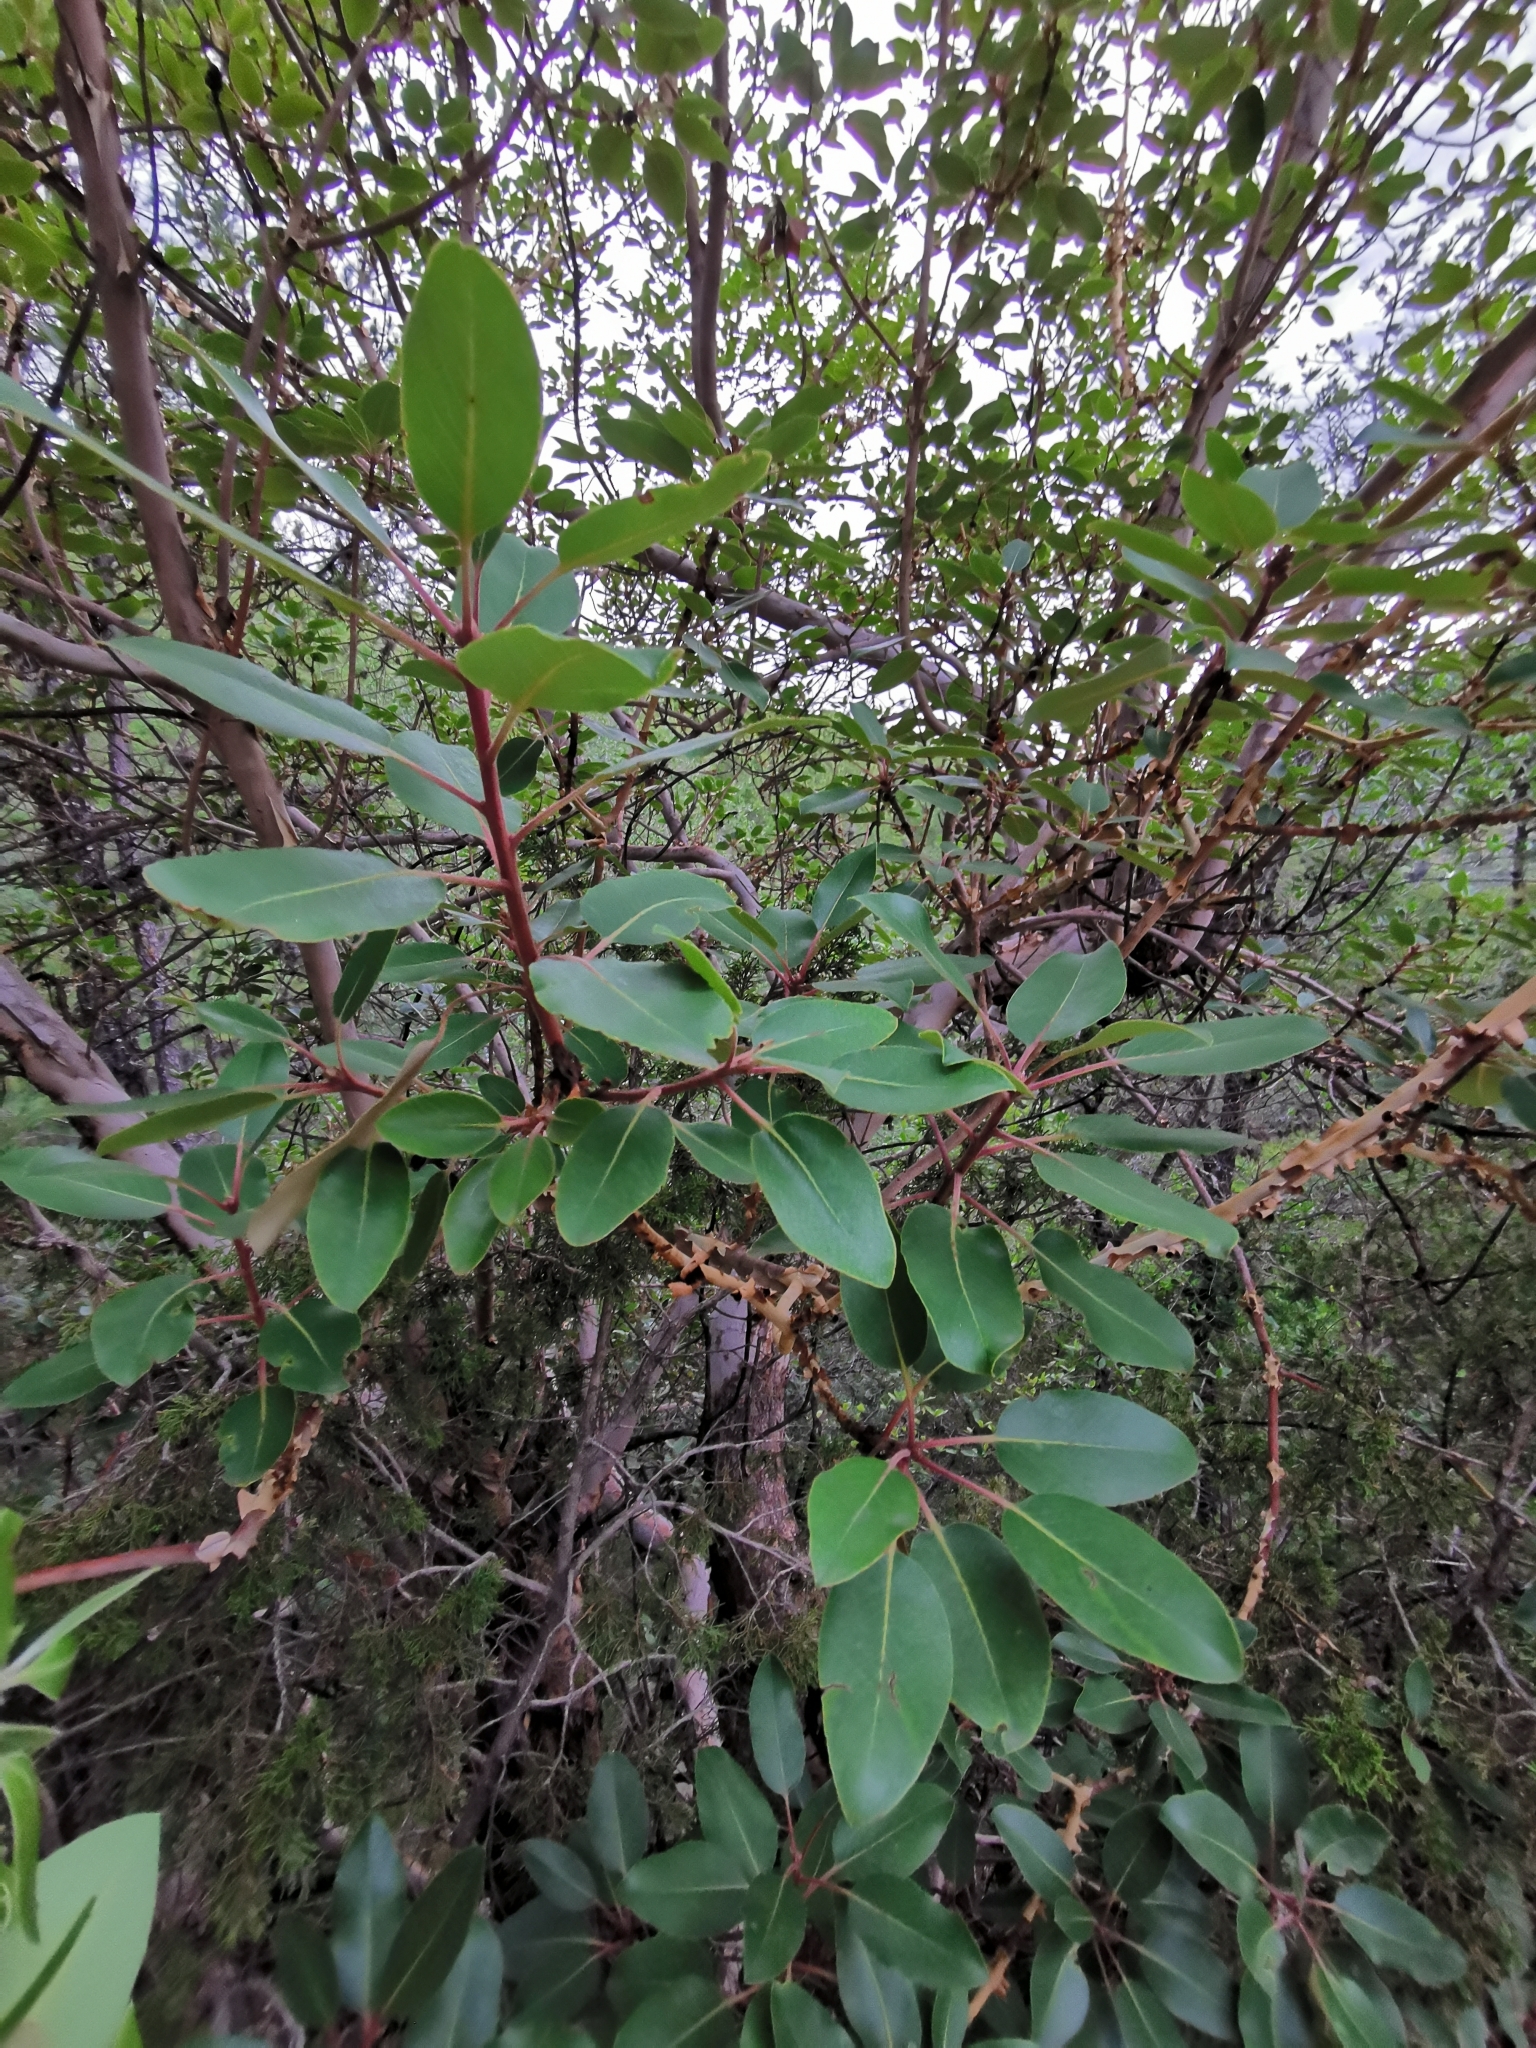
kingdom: Plantae
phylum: Tracheophyta
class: Magnoliopsida
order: Ericales
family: Ericaceae
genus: Arbutus
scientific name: Arbutus xalapensis
